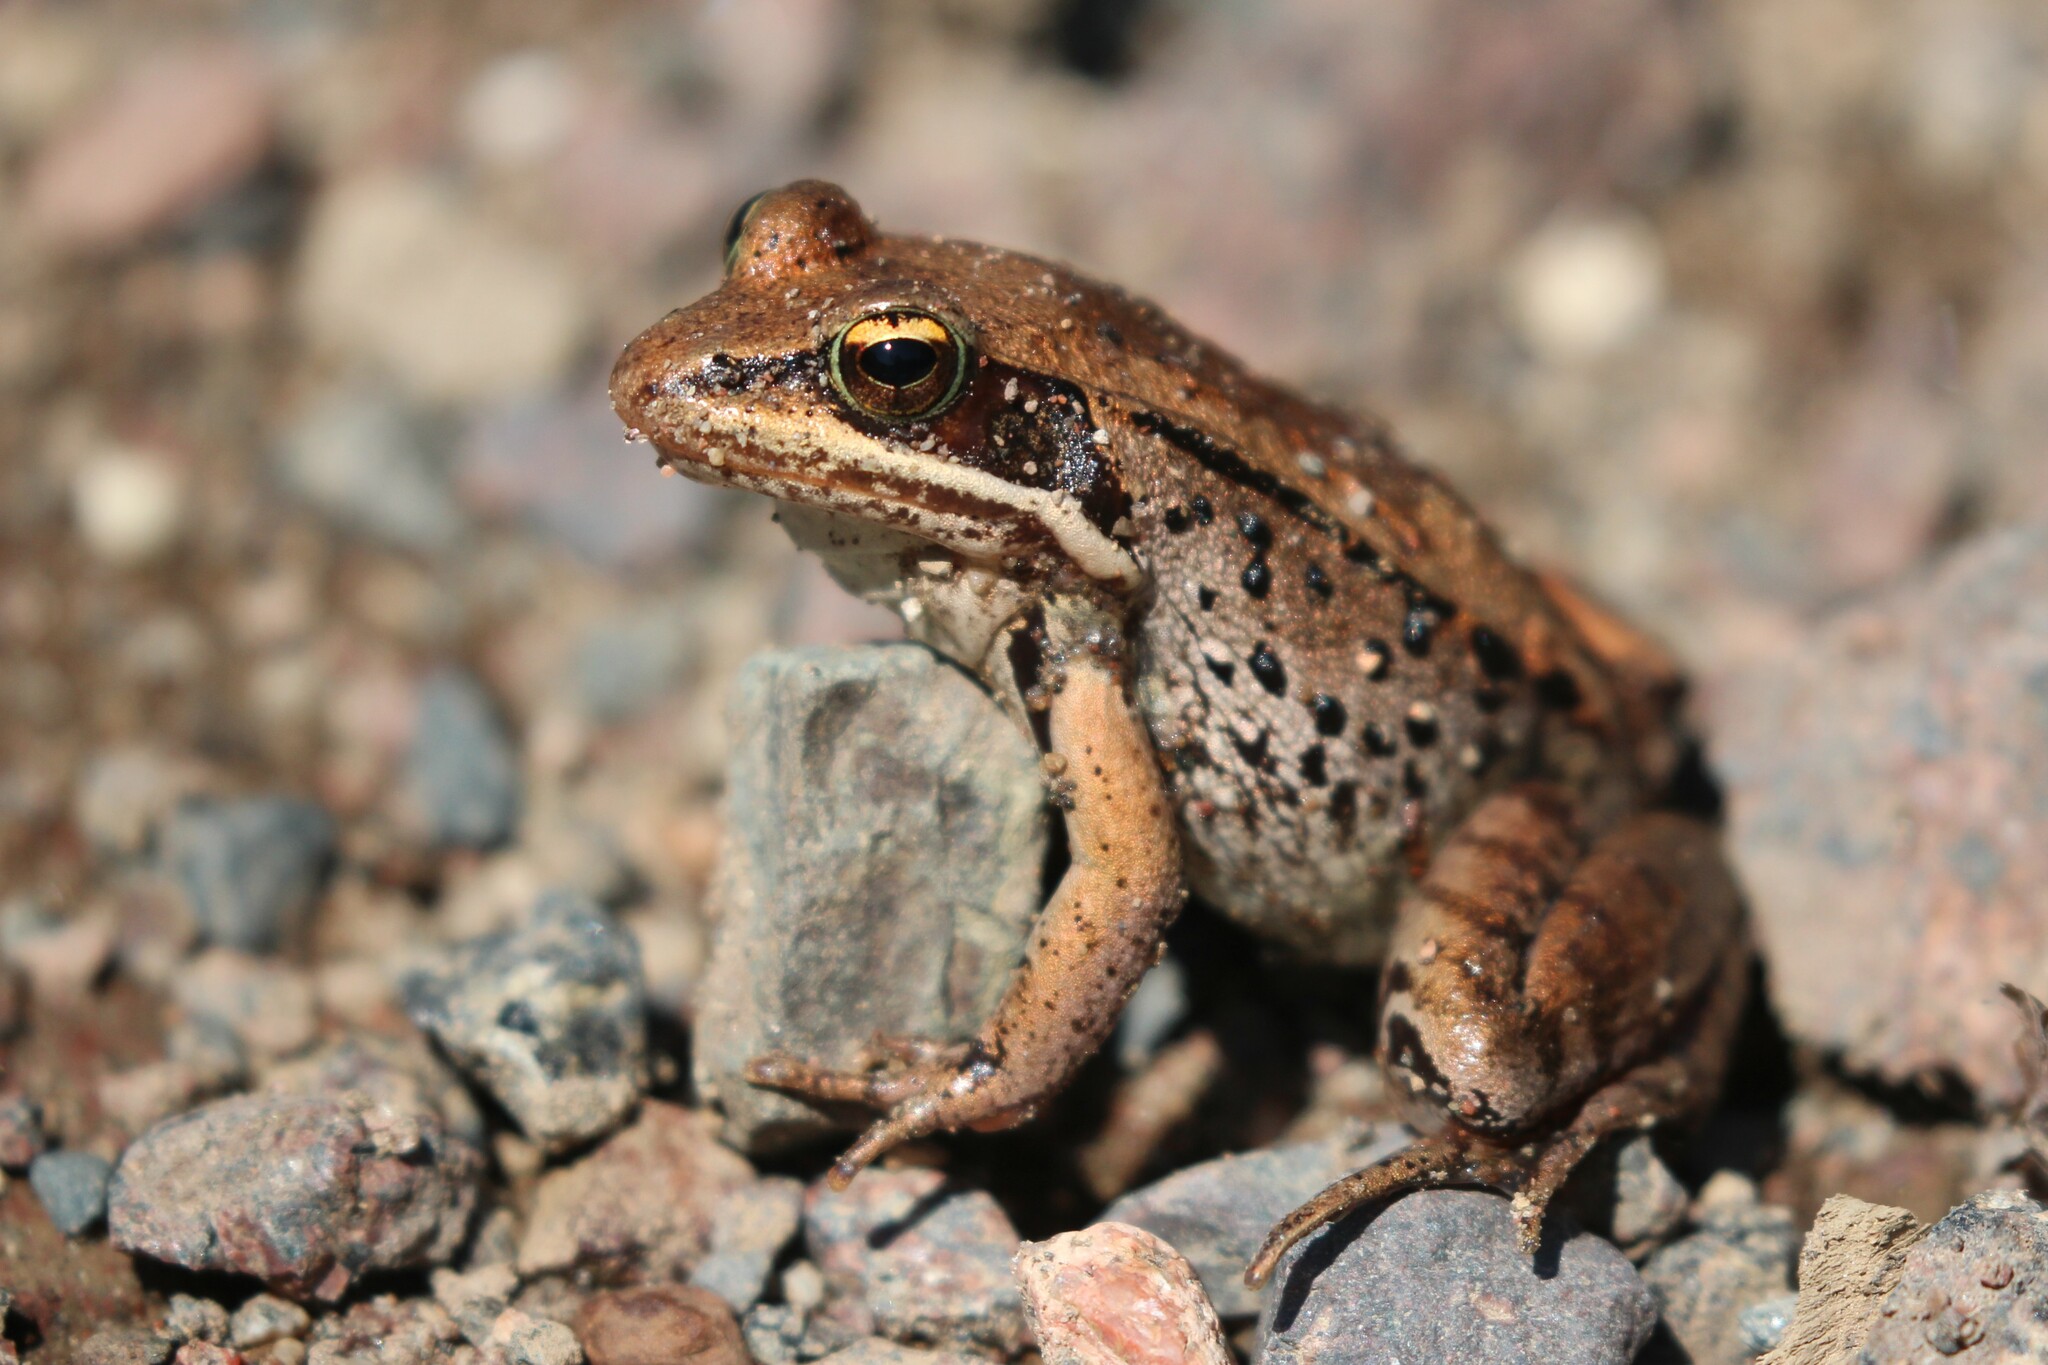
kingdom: Animalia
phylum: Chordata
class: Amphibia
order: Anura
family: Ranidae
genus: Lithobates
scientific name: Lithobates sylvaticus
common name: Wood frog
